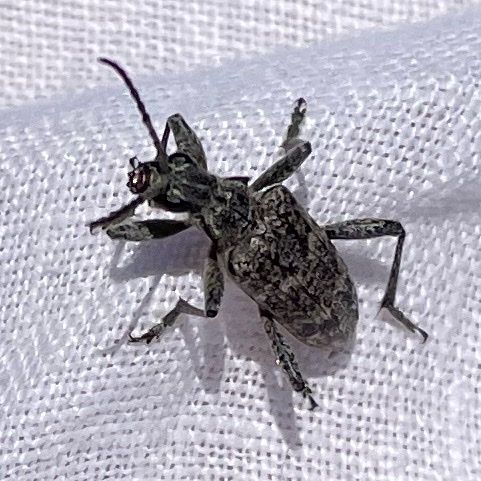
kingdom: Animalia
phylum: Arthropoda
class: Insecta
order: Coleoptera
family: Cerambycidae
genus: Rhagium
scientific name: Rhagium inquisitor
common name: Ribbed pine borer
